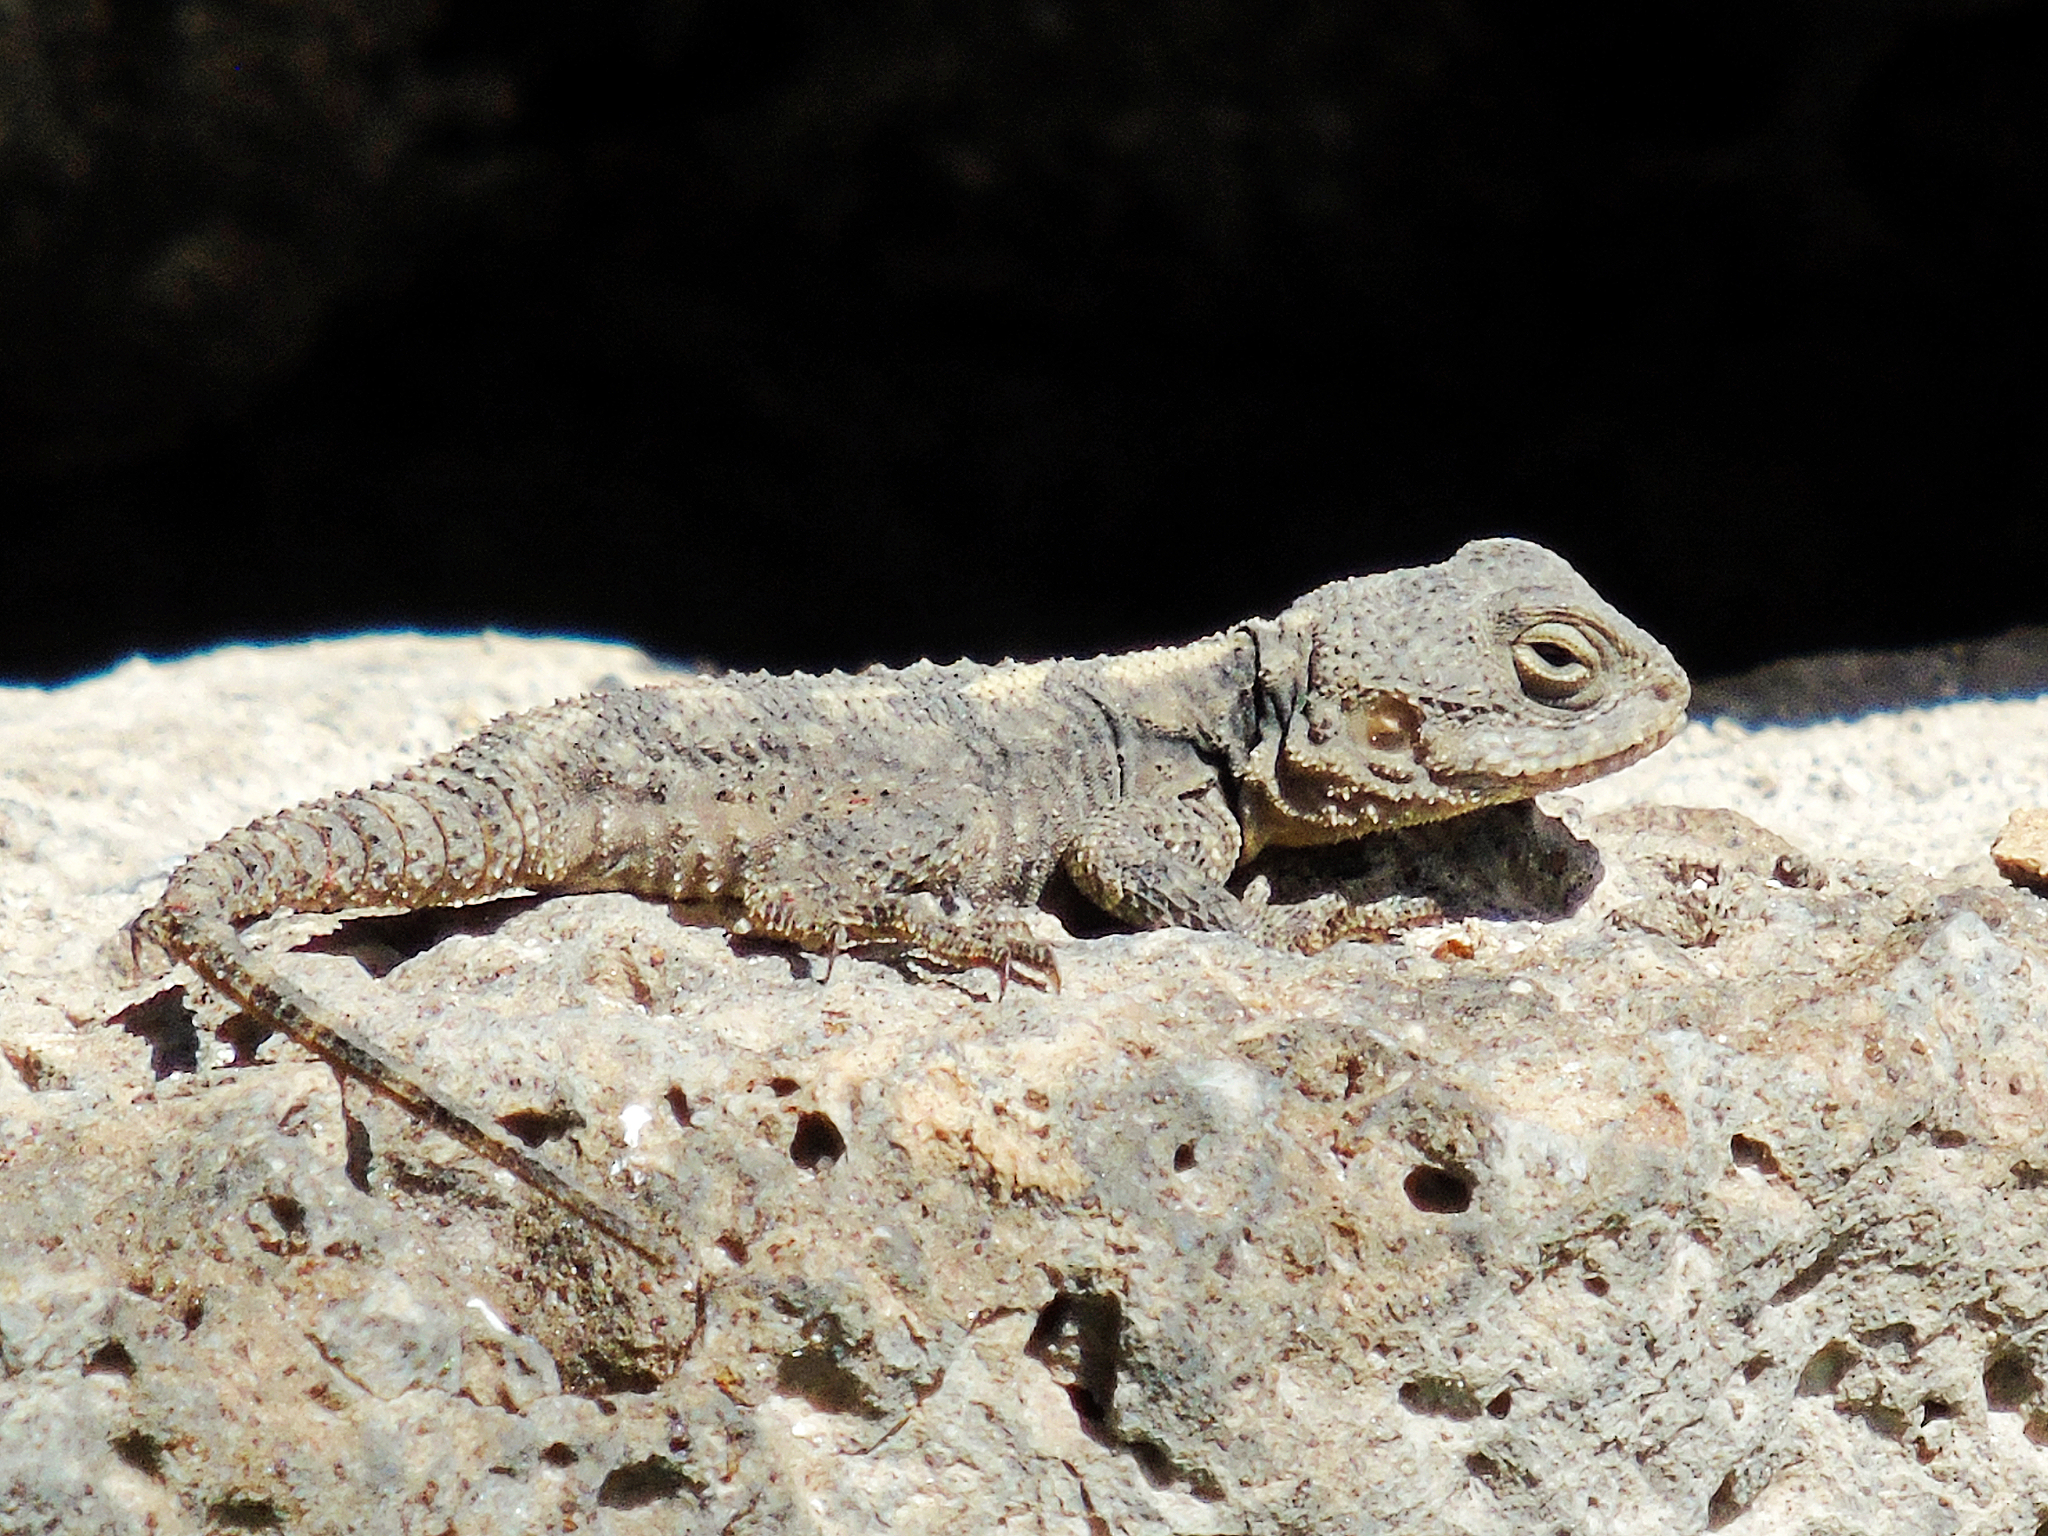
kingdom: Animalia
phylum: Chordata
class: Squamata
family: Agamidae
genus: Stellagama
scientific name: Stellagama stellio
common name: Starred agama
